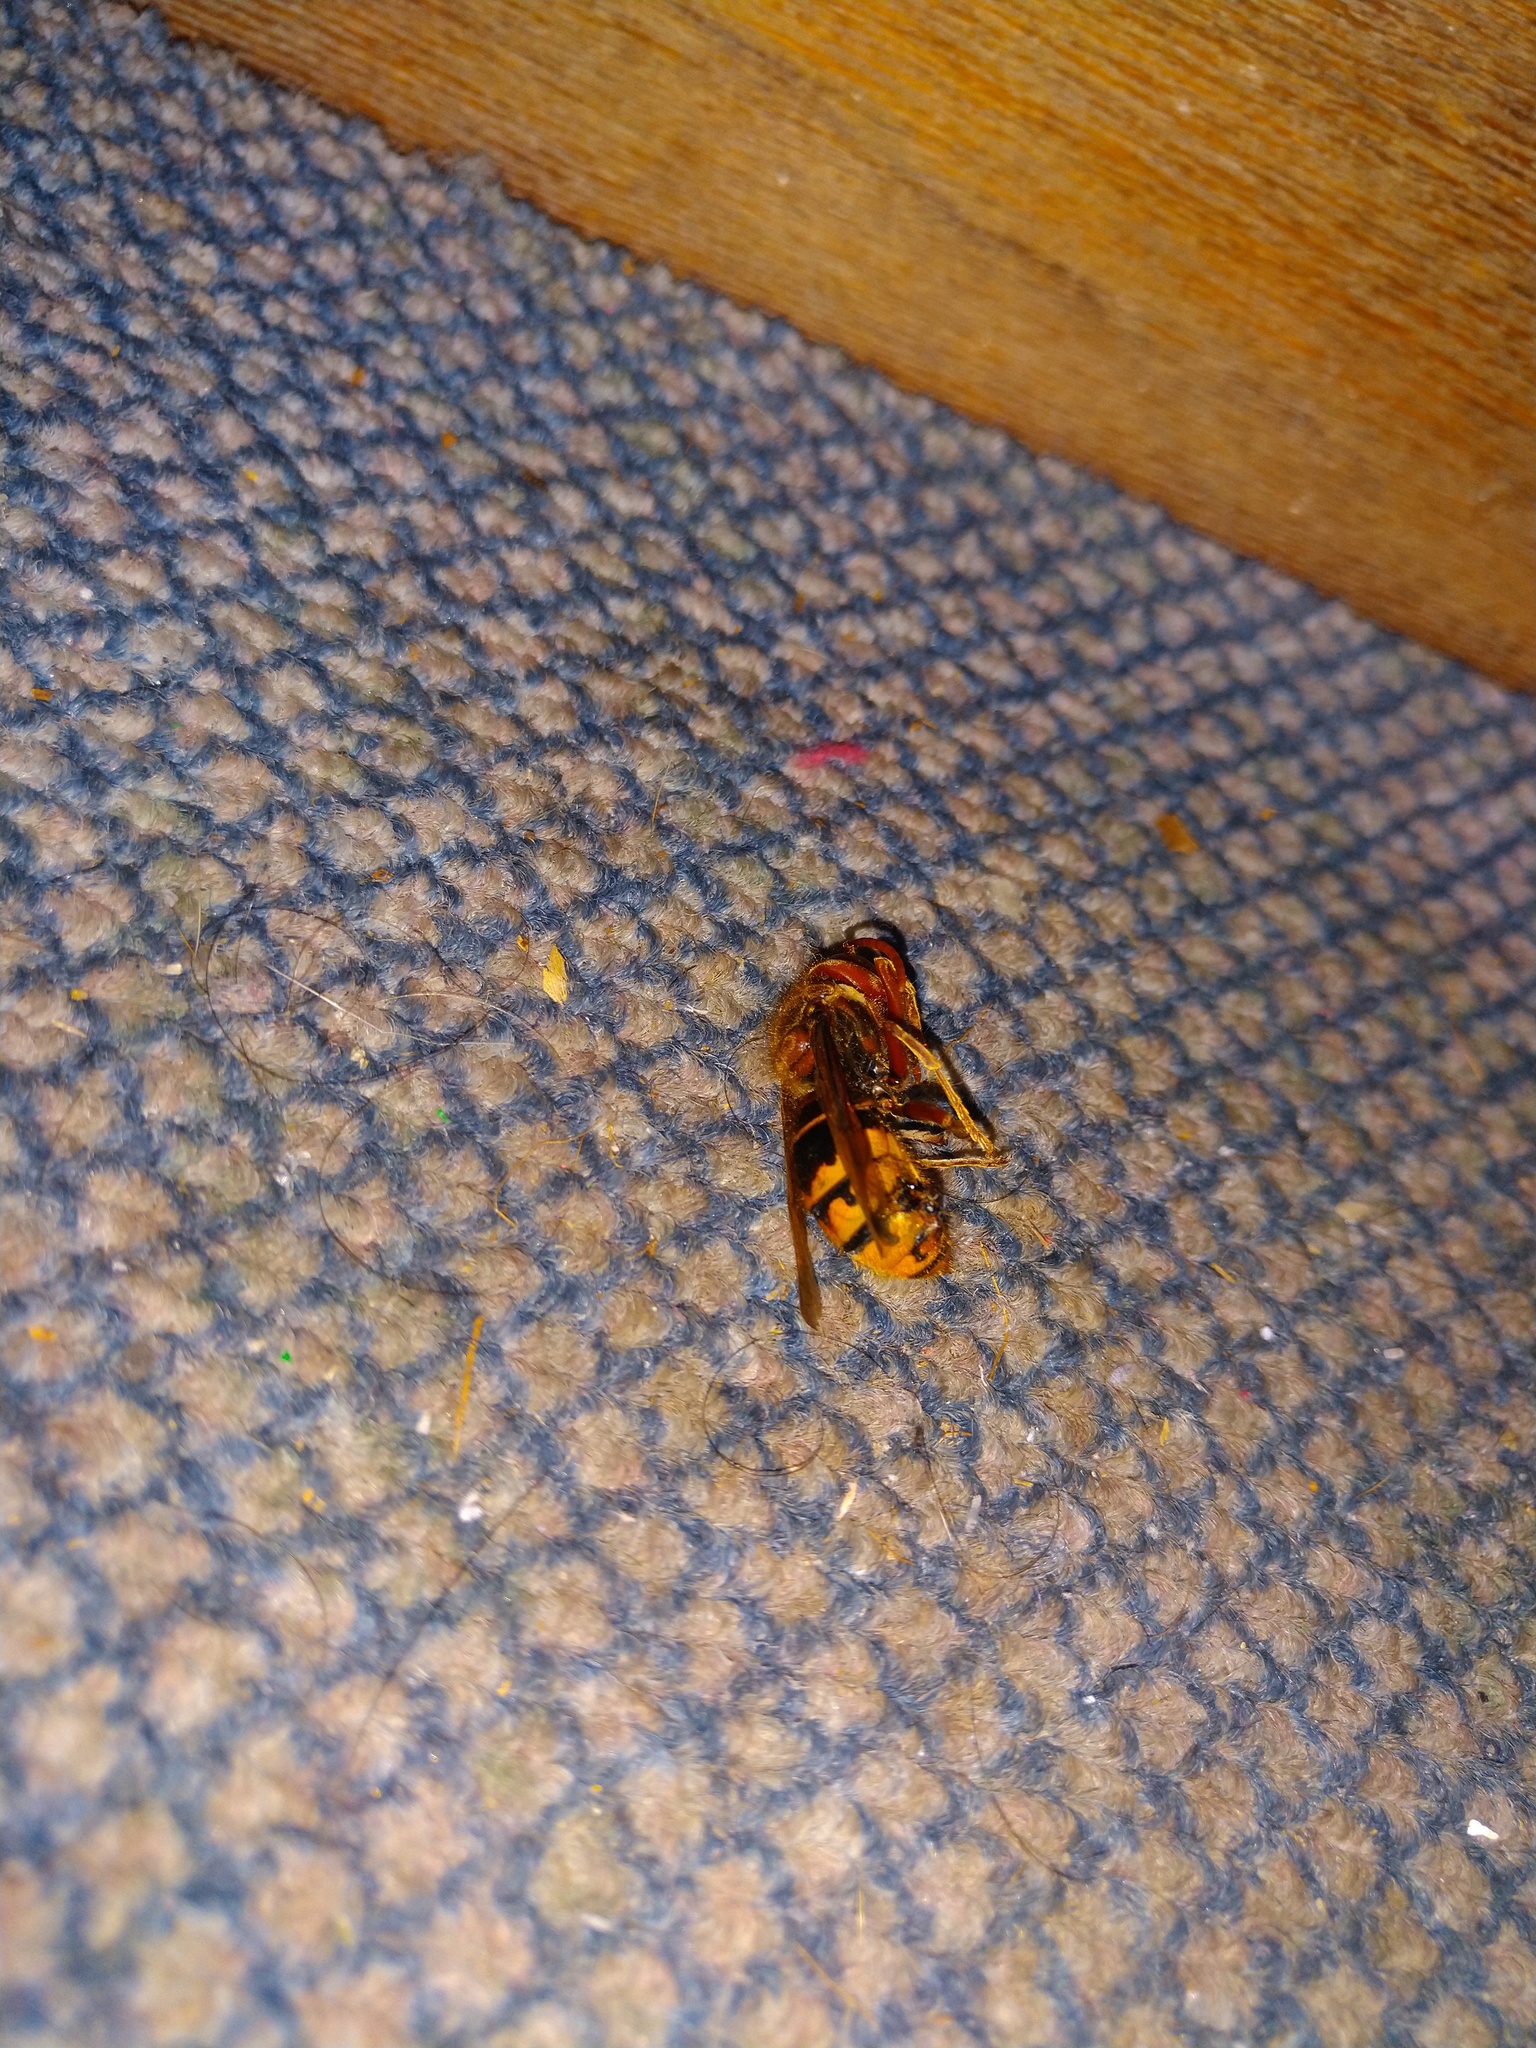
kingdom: Animalia
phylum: Arthropoda
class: Insecta
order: Hymenoptera
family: Vespidae
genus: Vespa
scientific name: Vespa crabro
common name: Hornet
